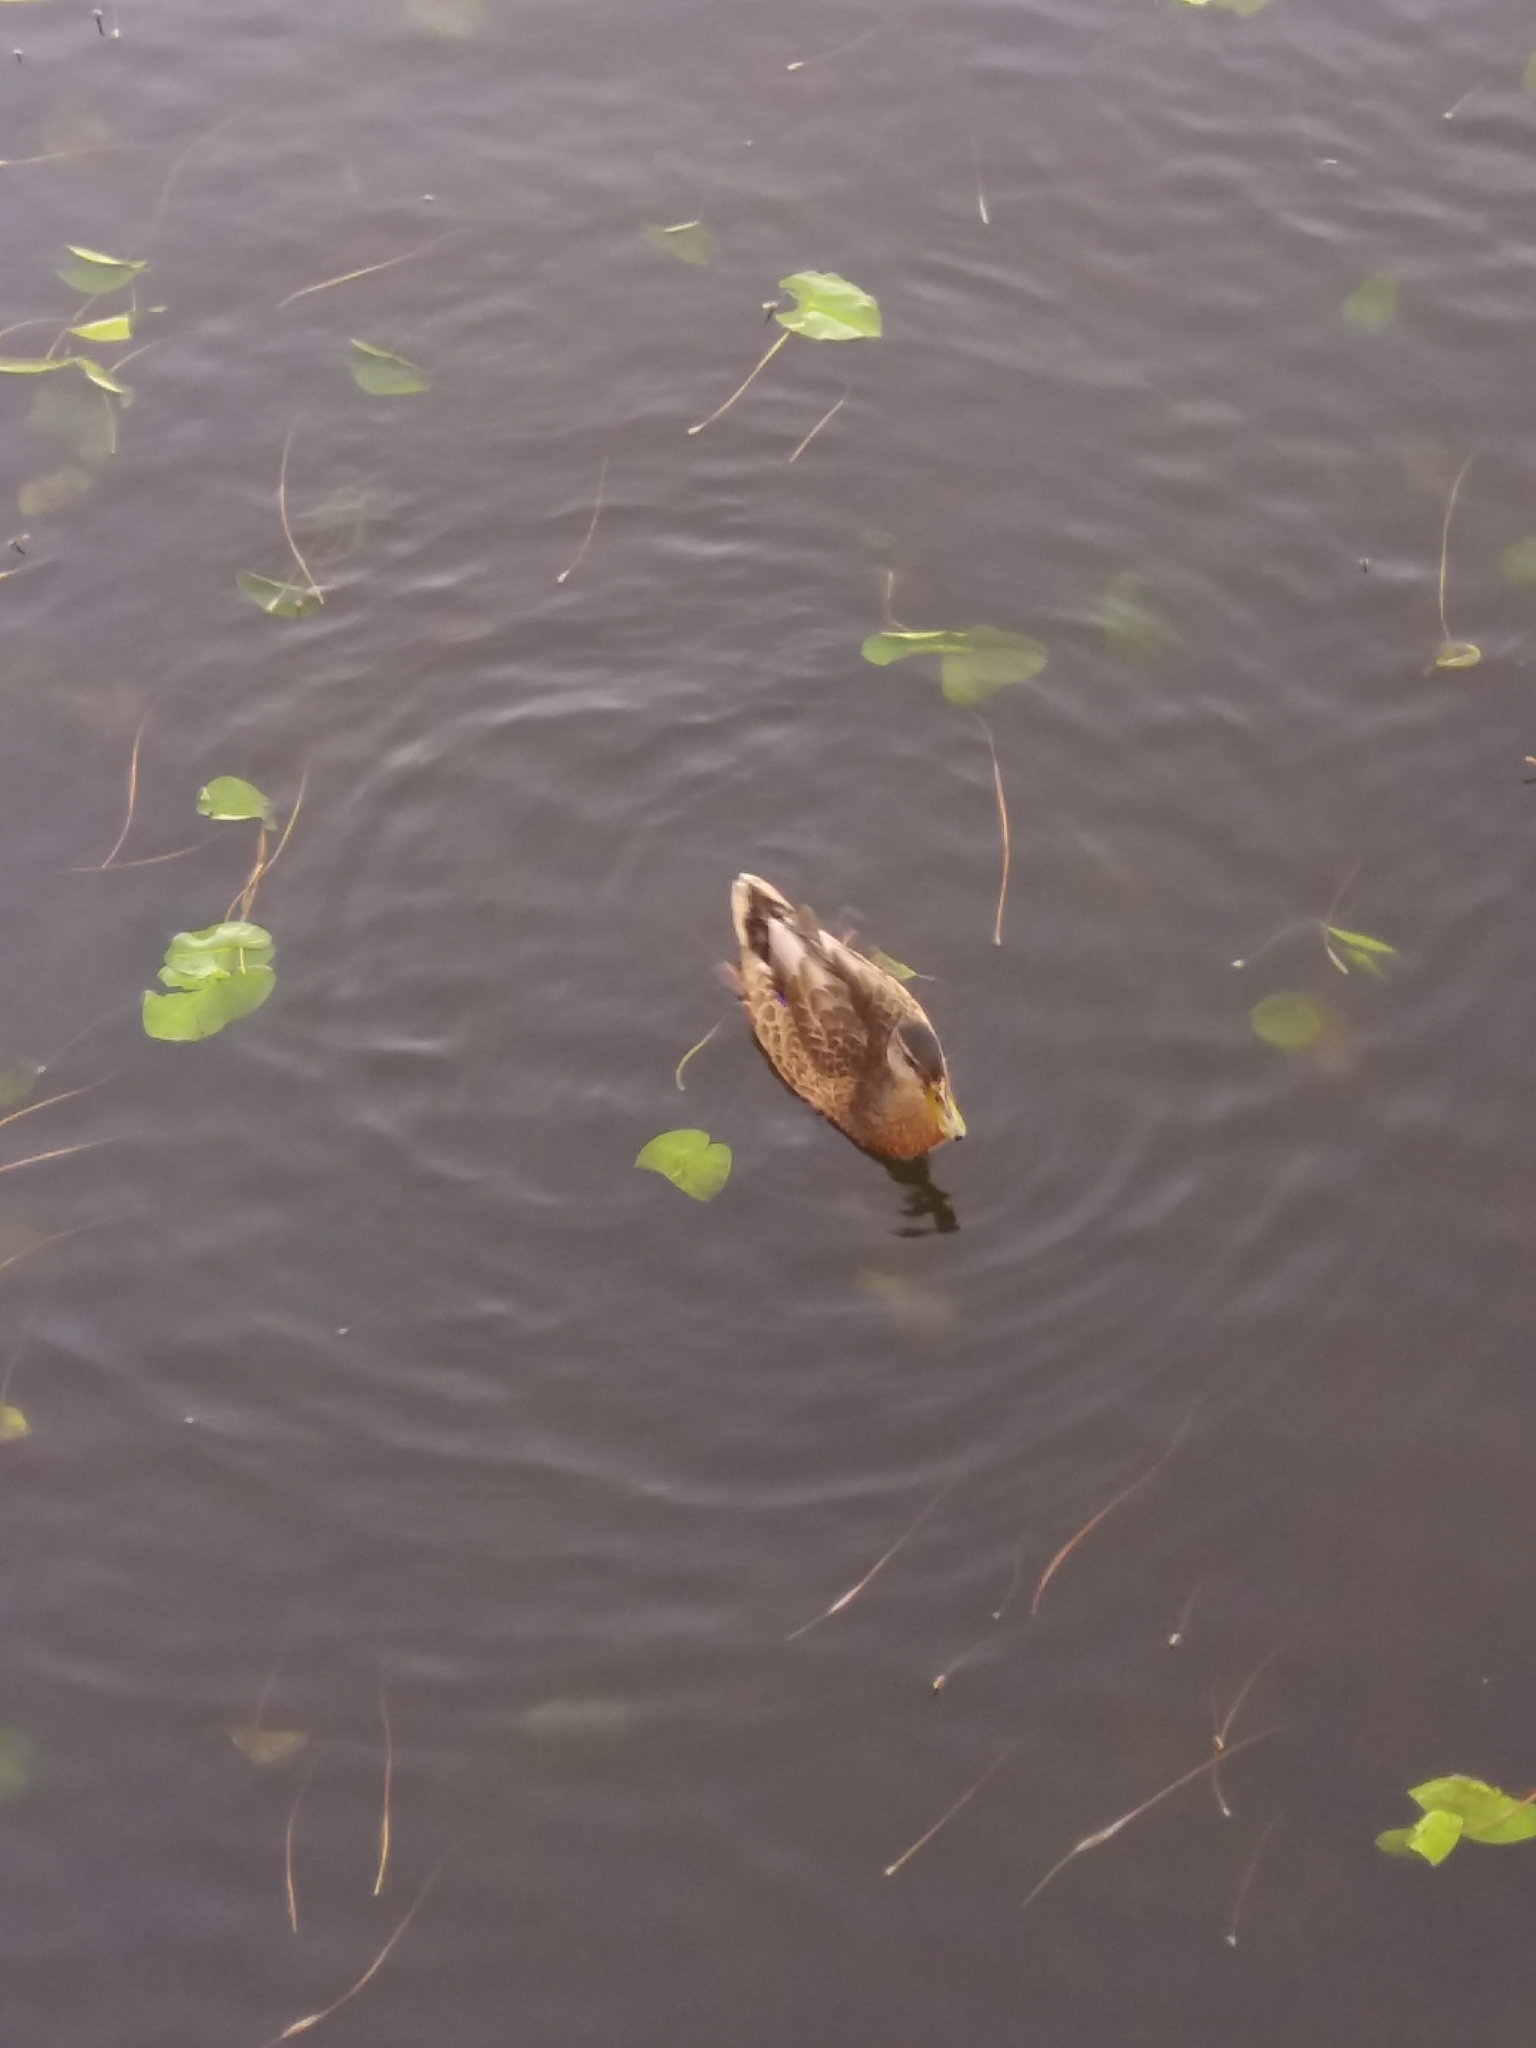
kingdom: Animalia
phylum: Chordata
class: Aves
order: Anseriformes
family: Anatidae
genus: Anas
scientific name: Anas platyrhynchos
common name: Mallard
